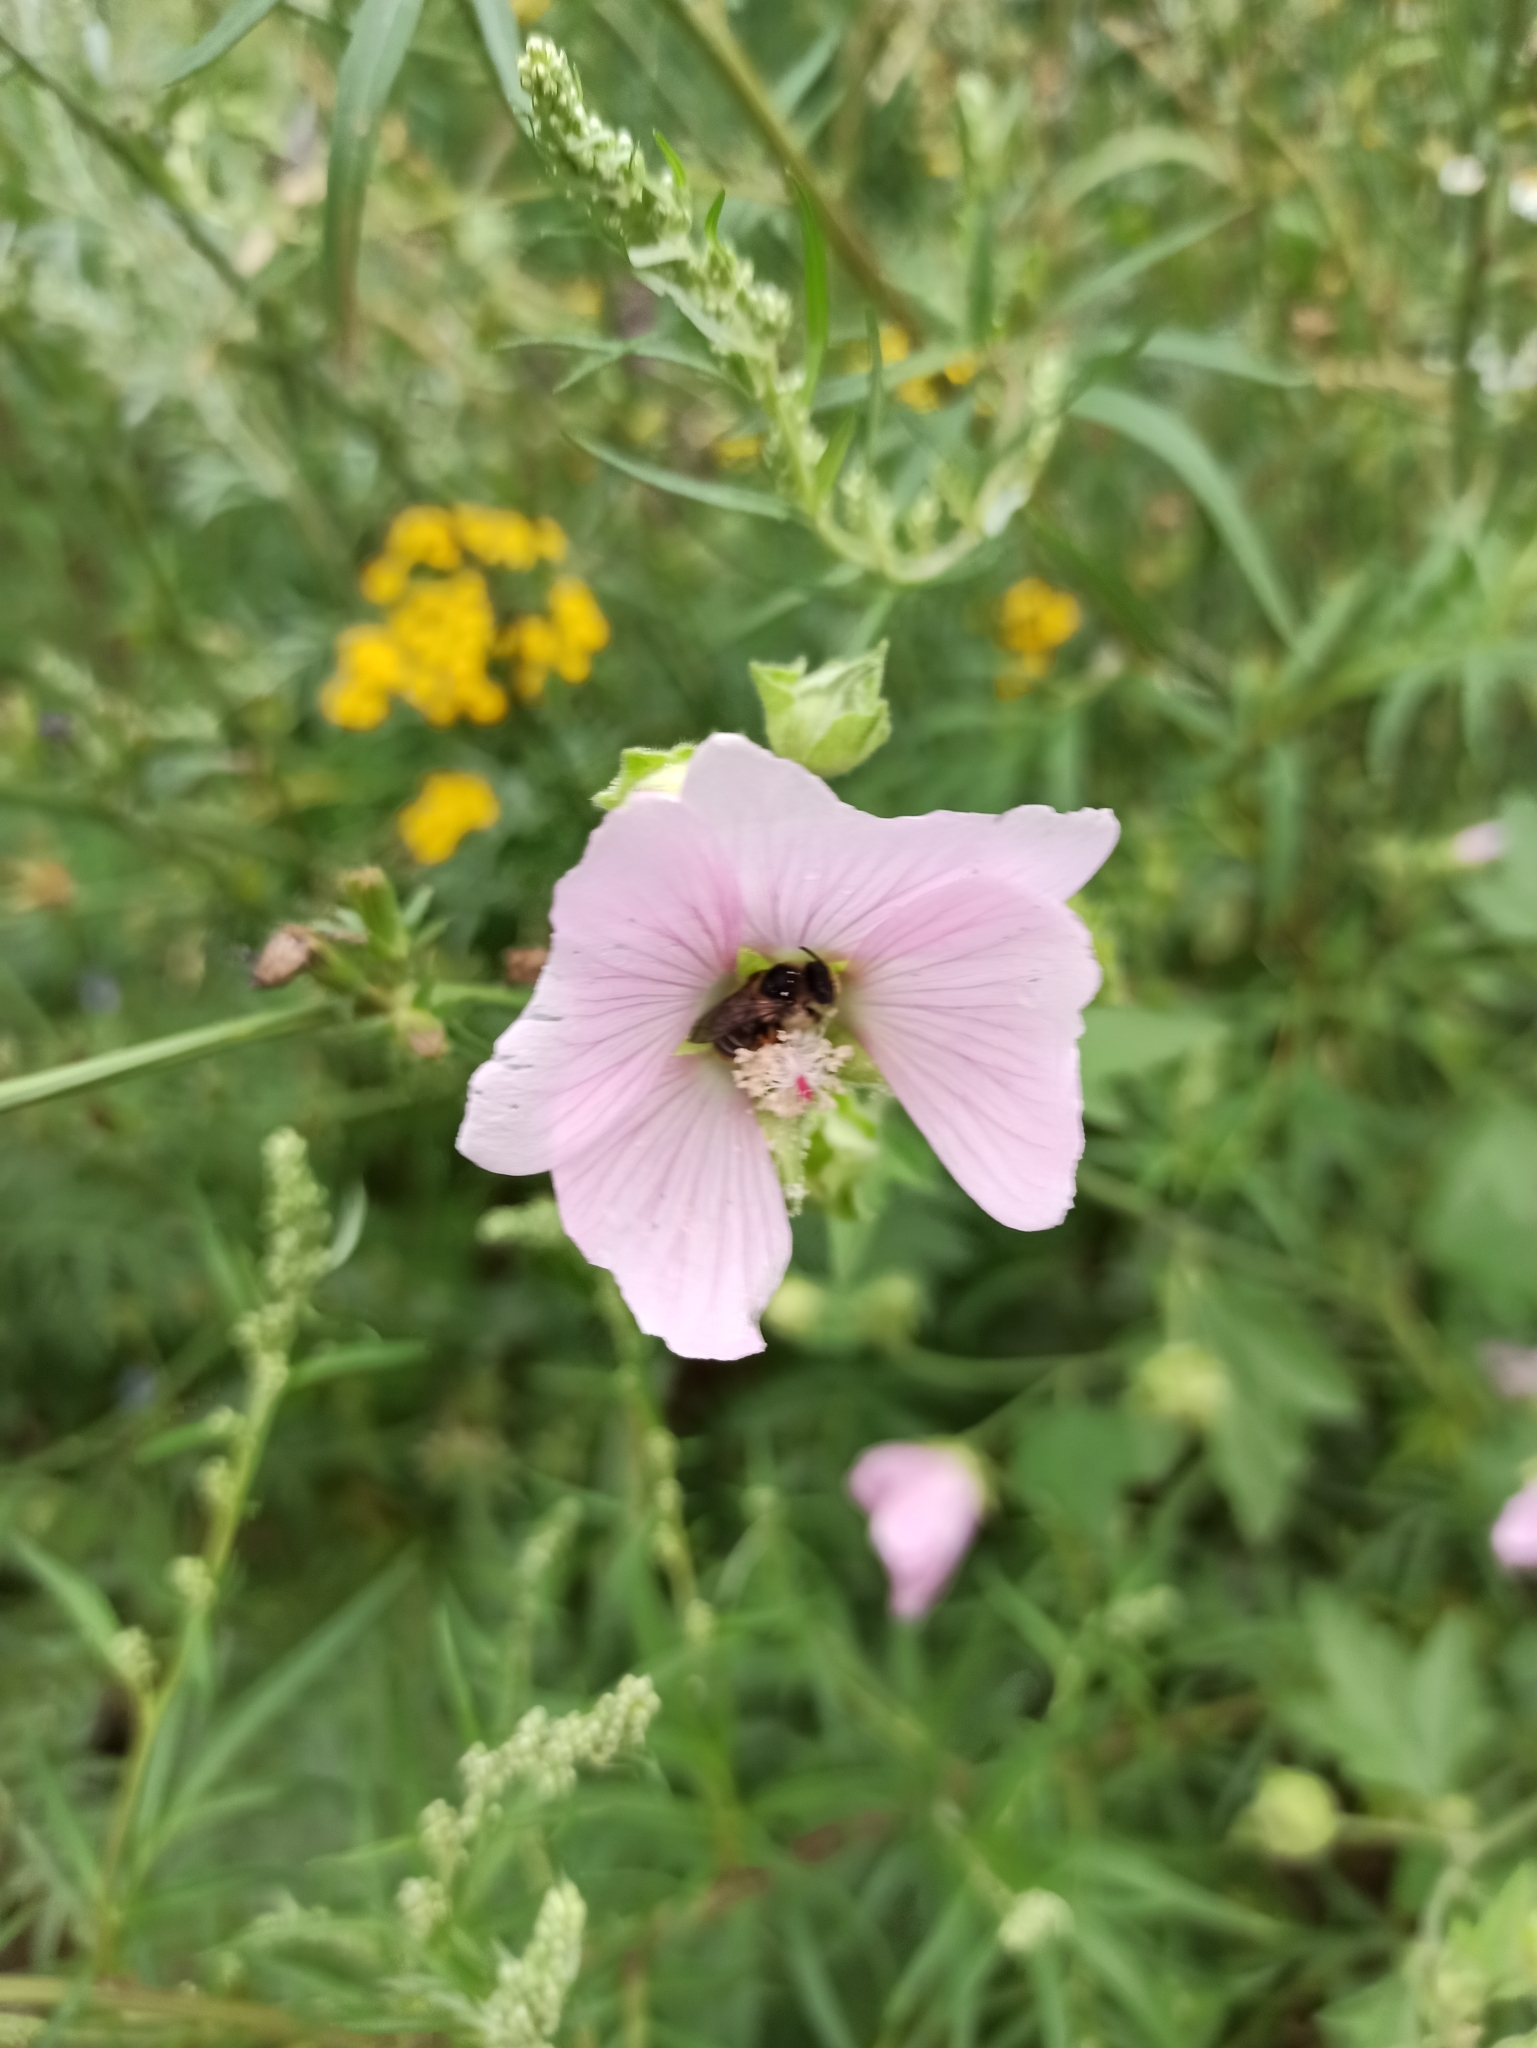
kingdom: Plantae
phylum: Tracheophyta
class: Magnoliopsida
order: Malvales
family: Malvaceae
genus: Malva
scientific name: Malva thuringiaca
